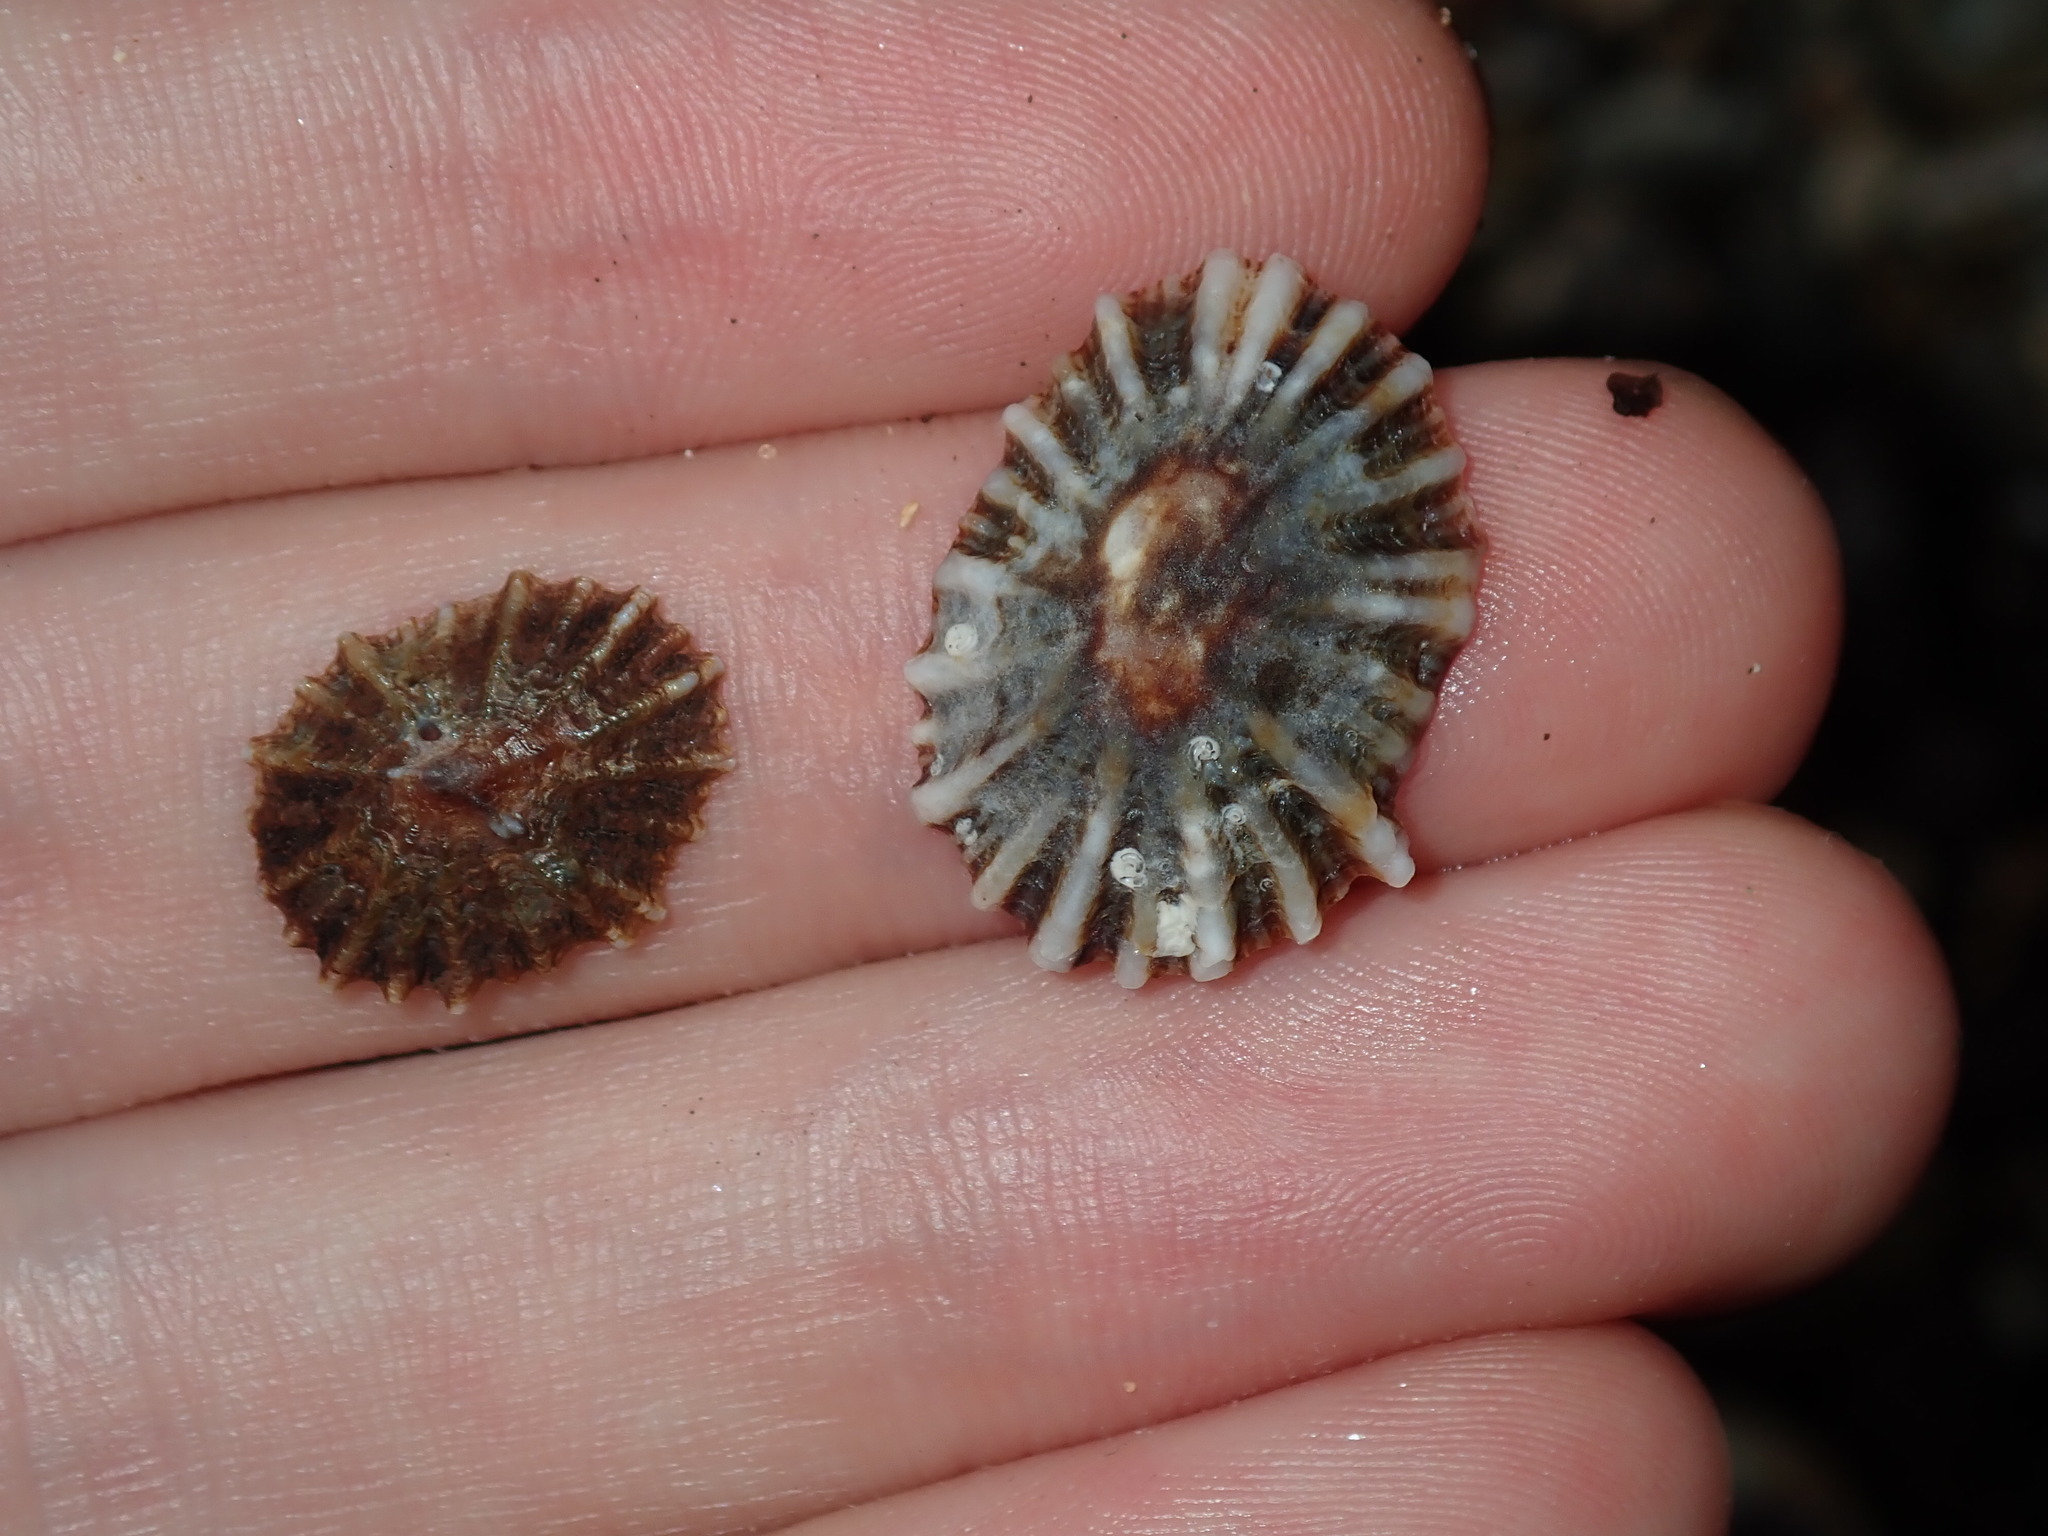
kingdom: Animalia
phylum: Mollusca
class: Gastropoda
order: Siphonariida
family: Siphonariidae
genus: Siphonaria
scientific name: Siphonaria denticulata
